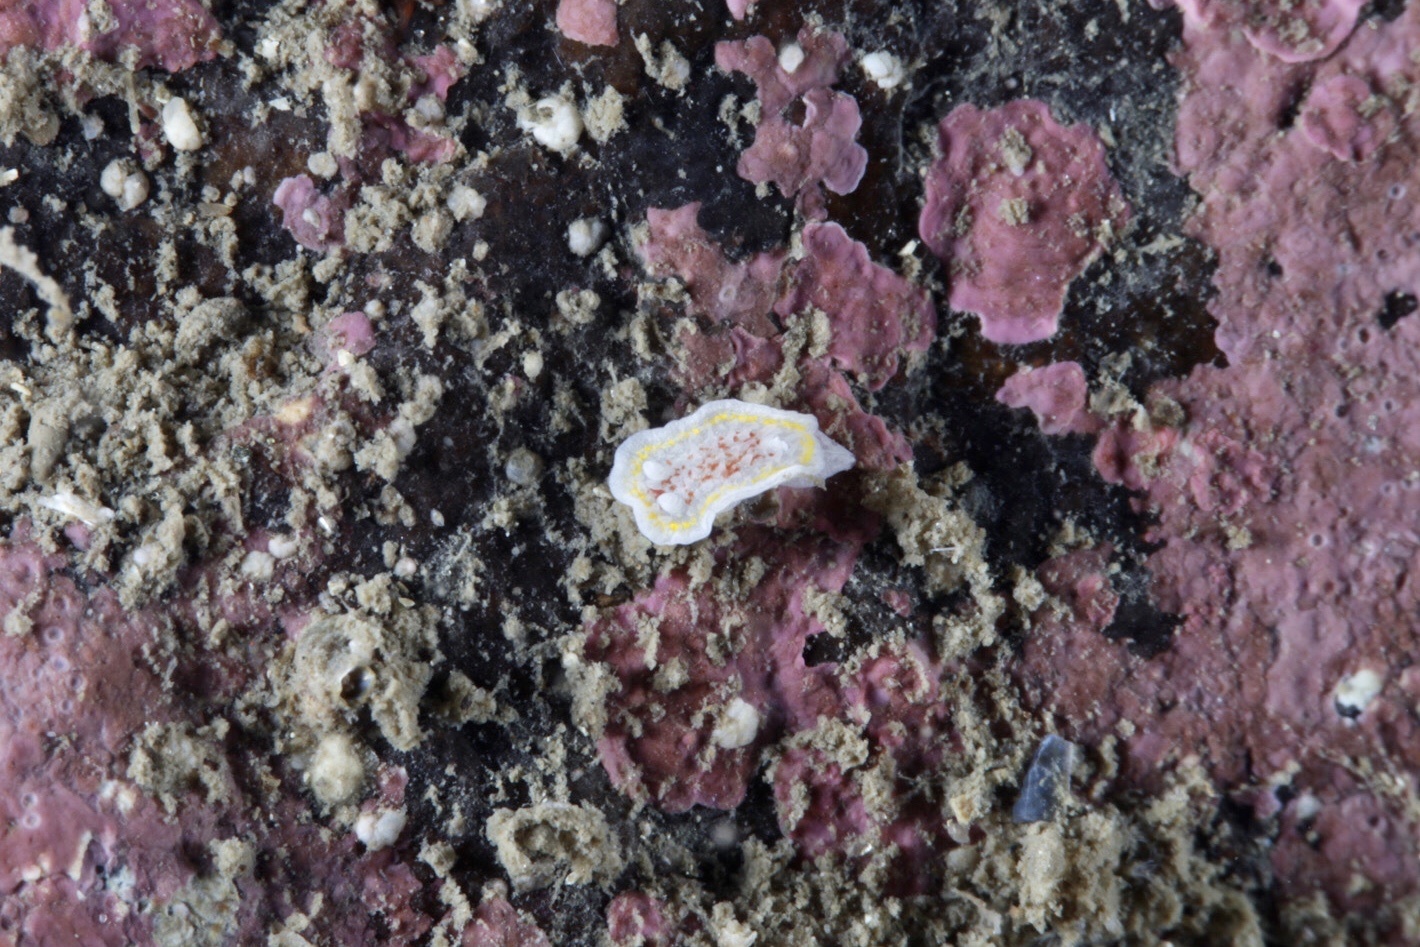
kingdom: Animalia
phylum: Mollusca
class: Gastropoda
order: Nudibranchia
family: Calycidorididae
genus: Diaphorodoris
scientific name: Diaphorodoris luteocincta
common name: Fried egg nudibranch
